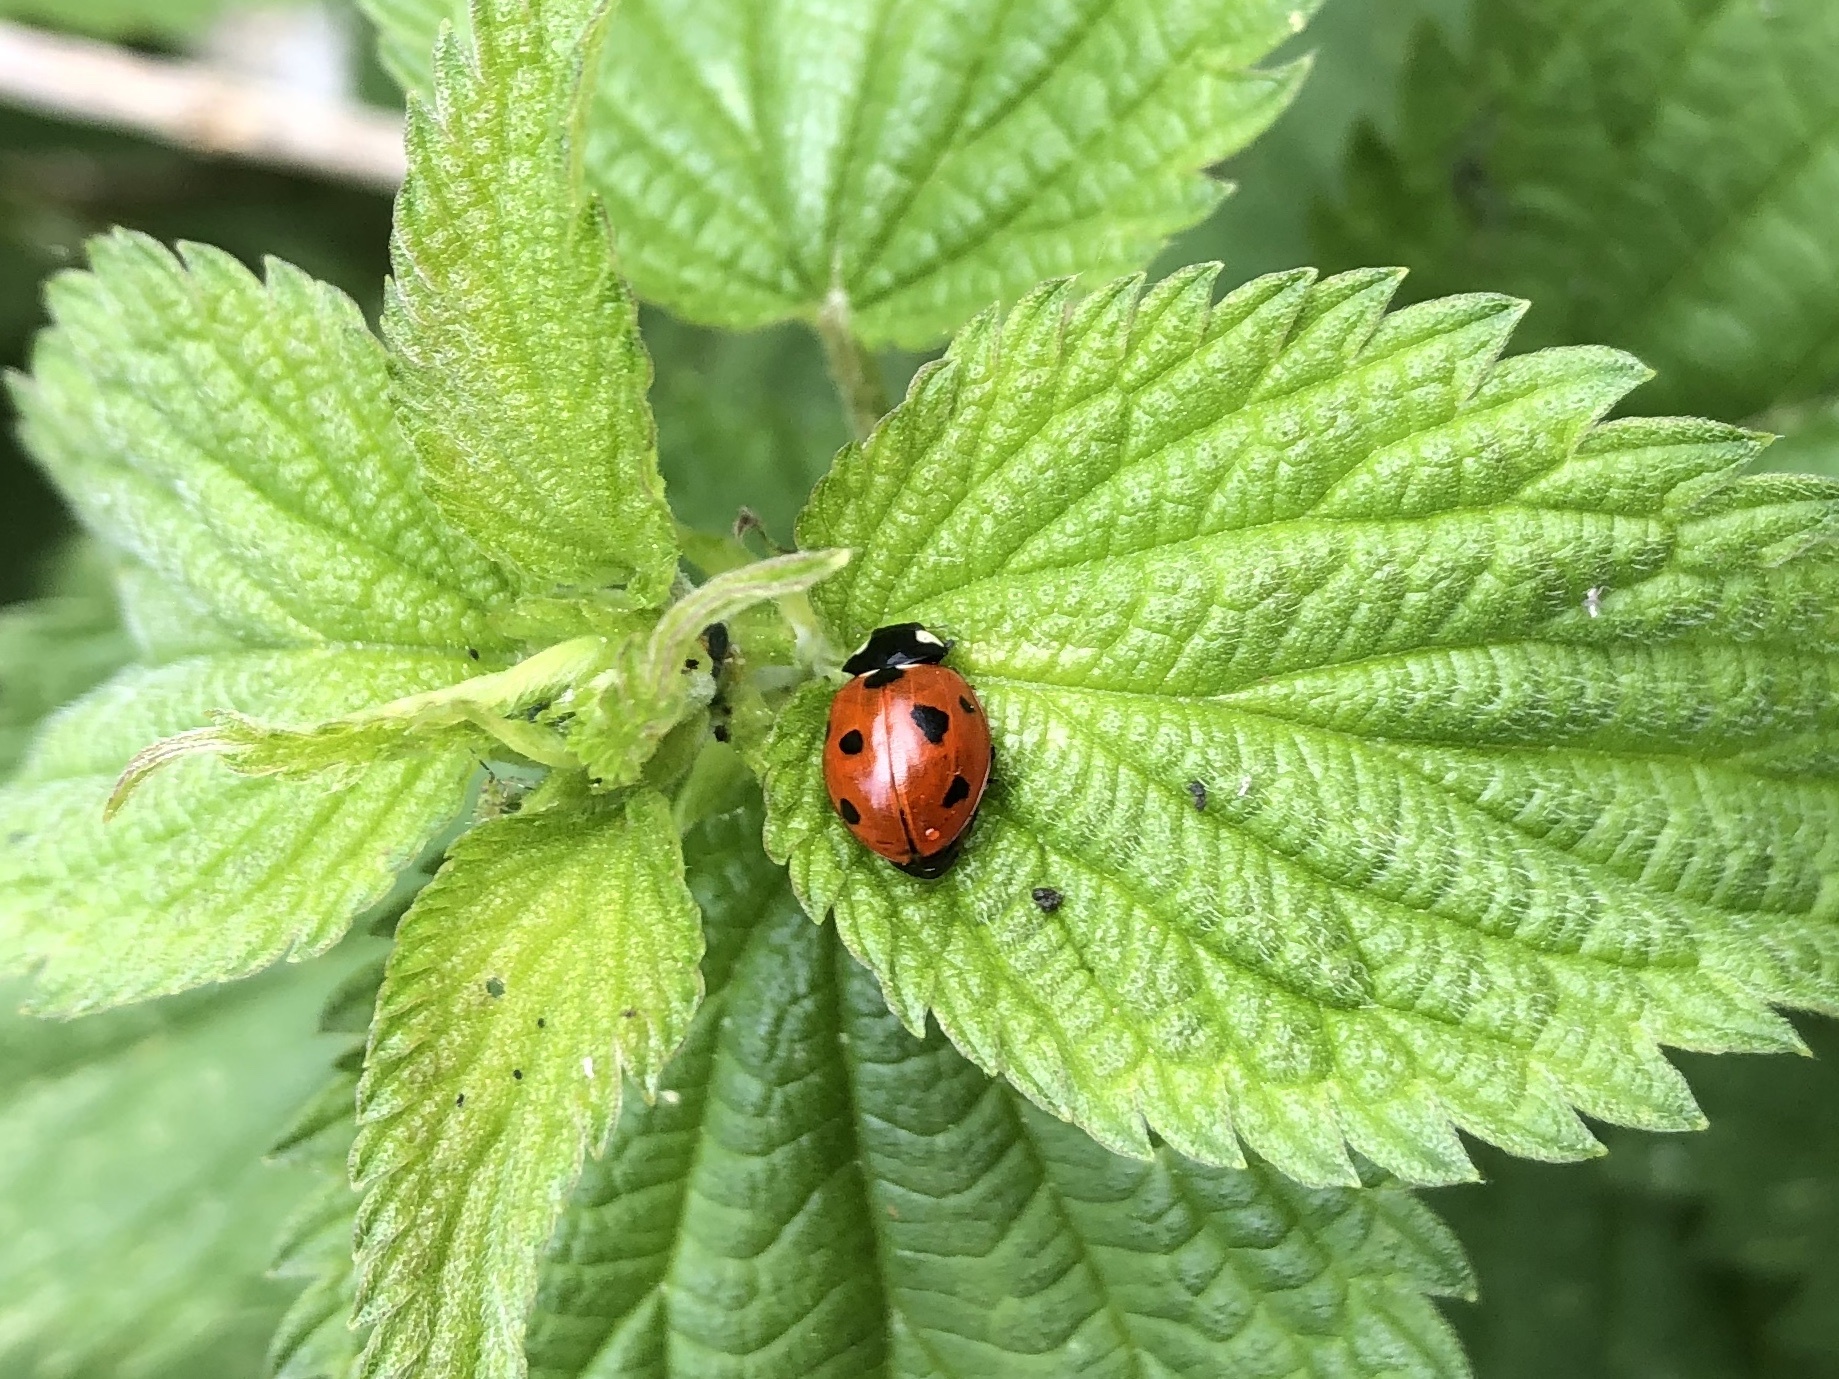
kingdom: Animalia
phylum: Arthropoda
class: Insecta
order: Coleoptera
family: Coccinellidae
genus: Coccinella
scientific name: Coccinella septempunctata
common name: Sevenspotted lady beetle
